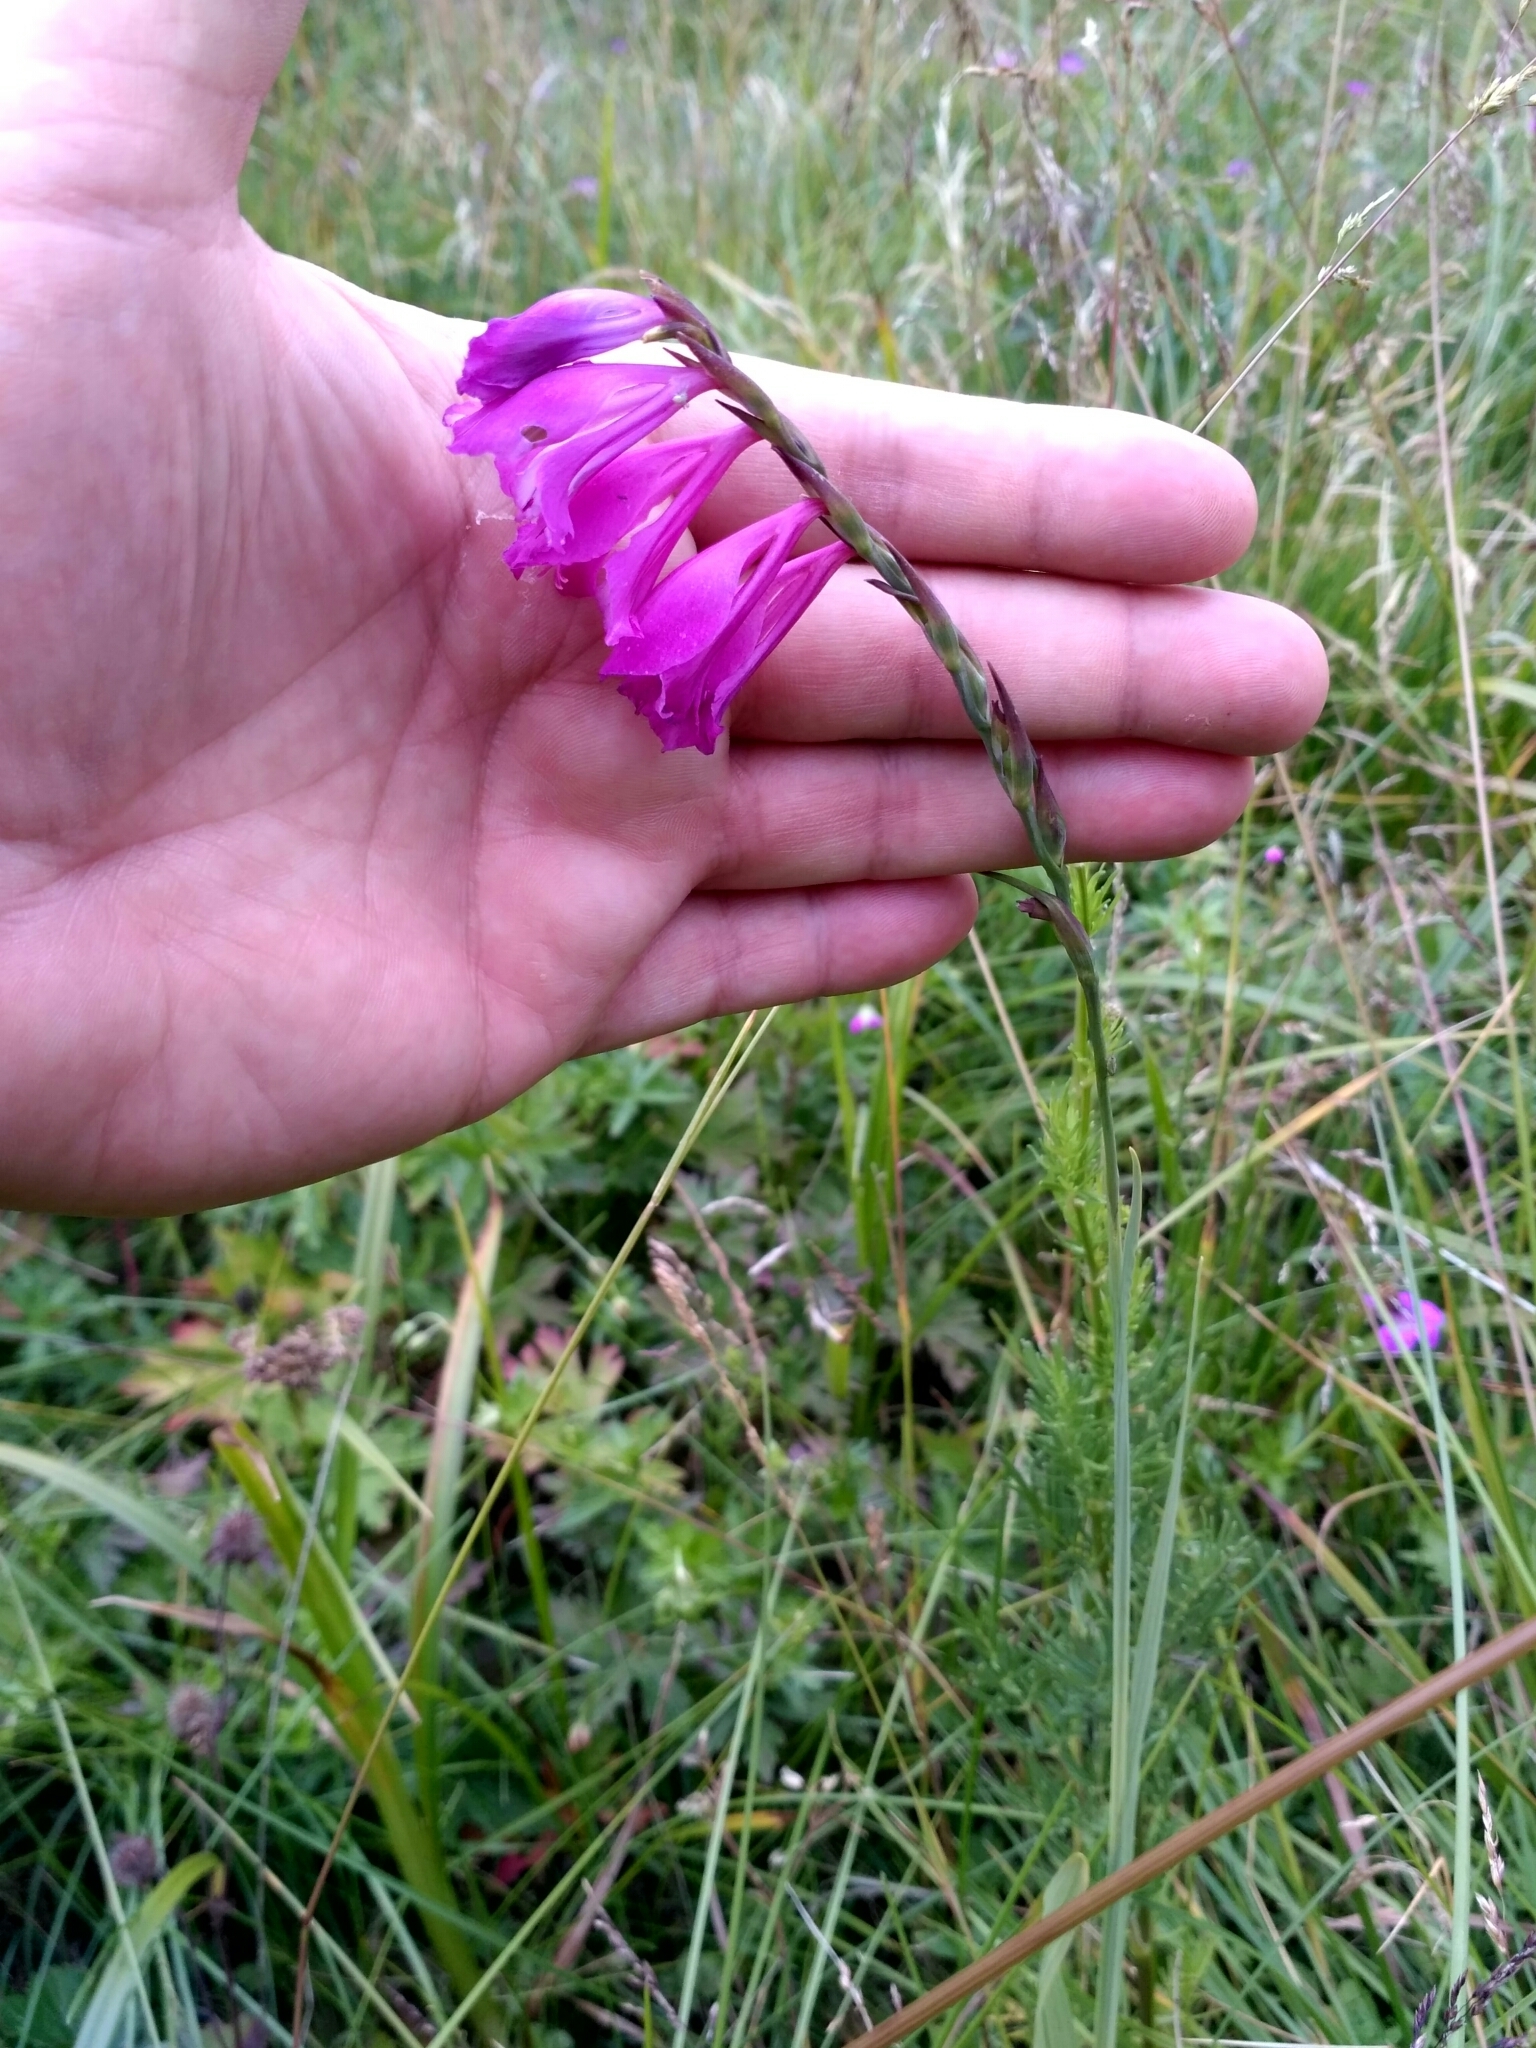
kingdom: Plantae
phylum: Tracheophyta
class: Liliopsida
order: Asparagales
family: Iridaceae
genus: Gladiolus
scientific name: Gladiolus imbricatus
